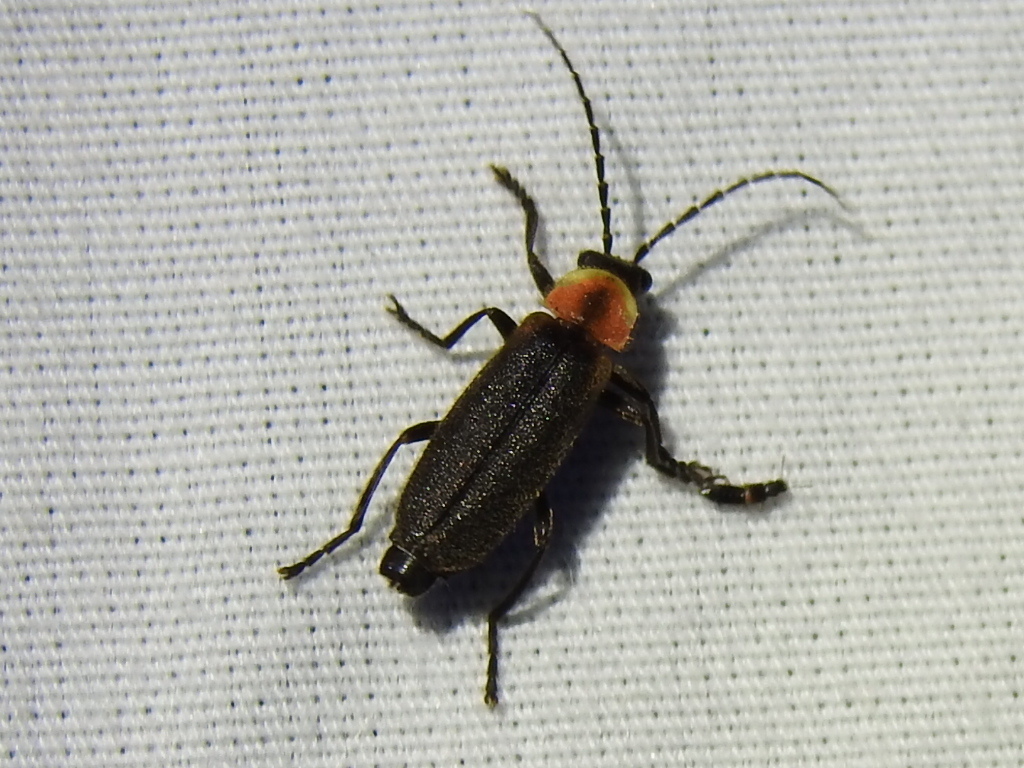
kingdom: Animalia
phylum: Arthropoda
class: Insecta
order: Coleoptera
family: Cantharidae
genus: Discodon
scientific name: Discodon planicolle
